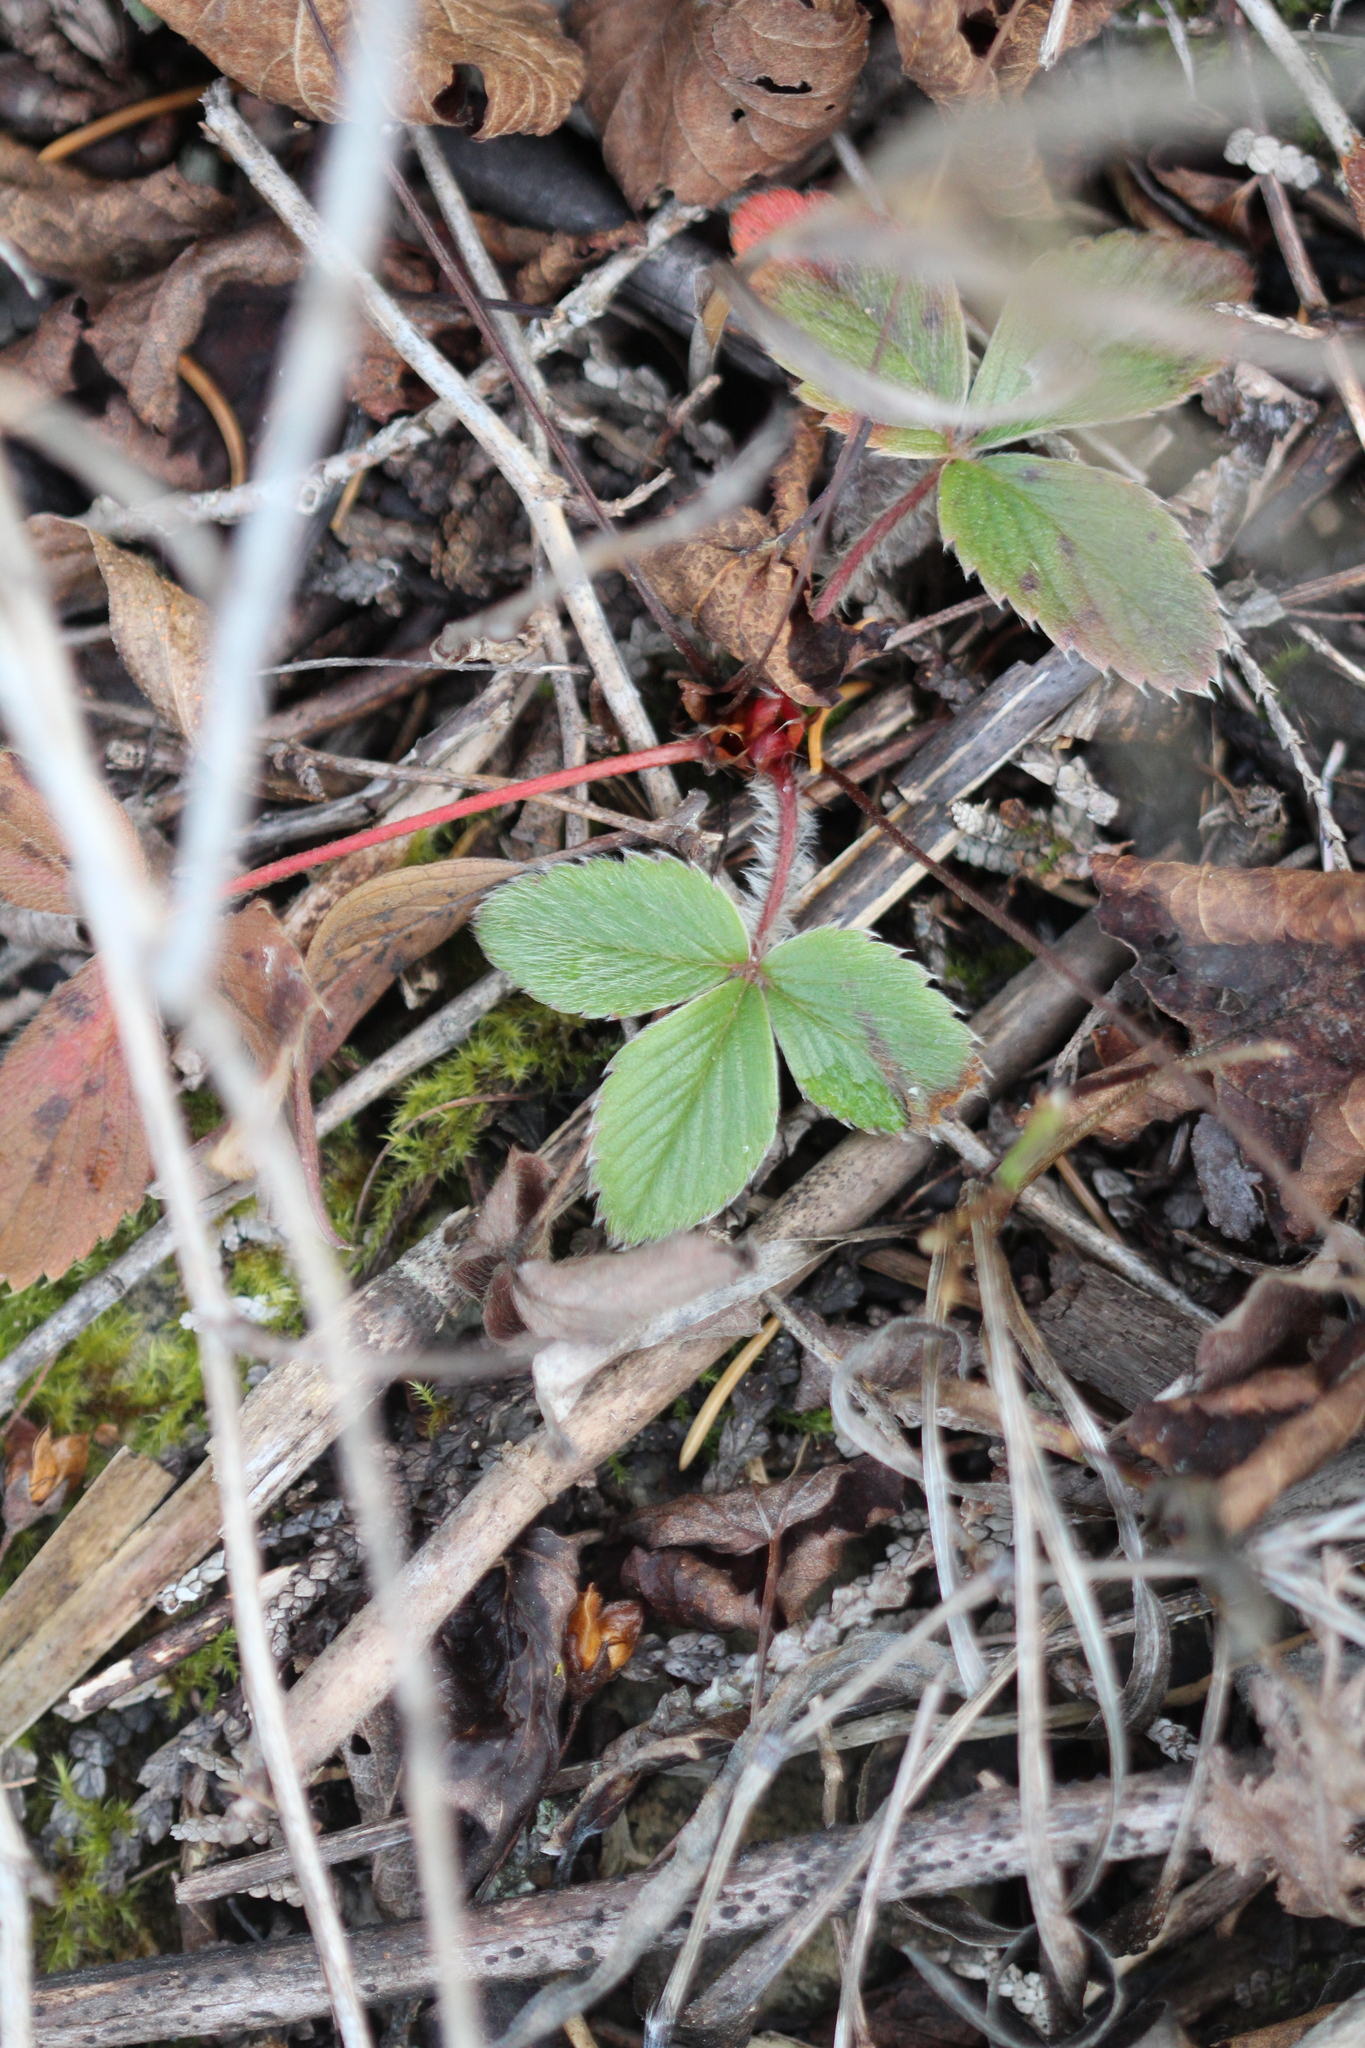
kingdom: Plantae
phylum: Tracheophyta
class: Magnoliopsida
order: Rosales
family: Rosaceae
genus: Fragaria
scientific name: Fragaria virginiana
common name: Thickleaved wild strawberry
